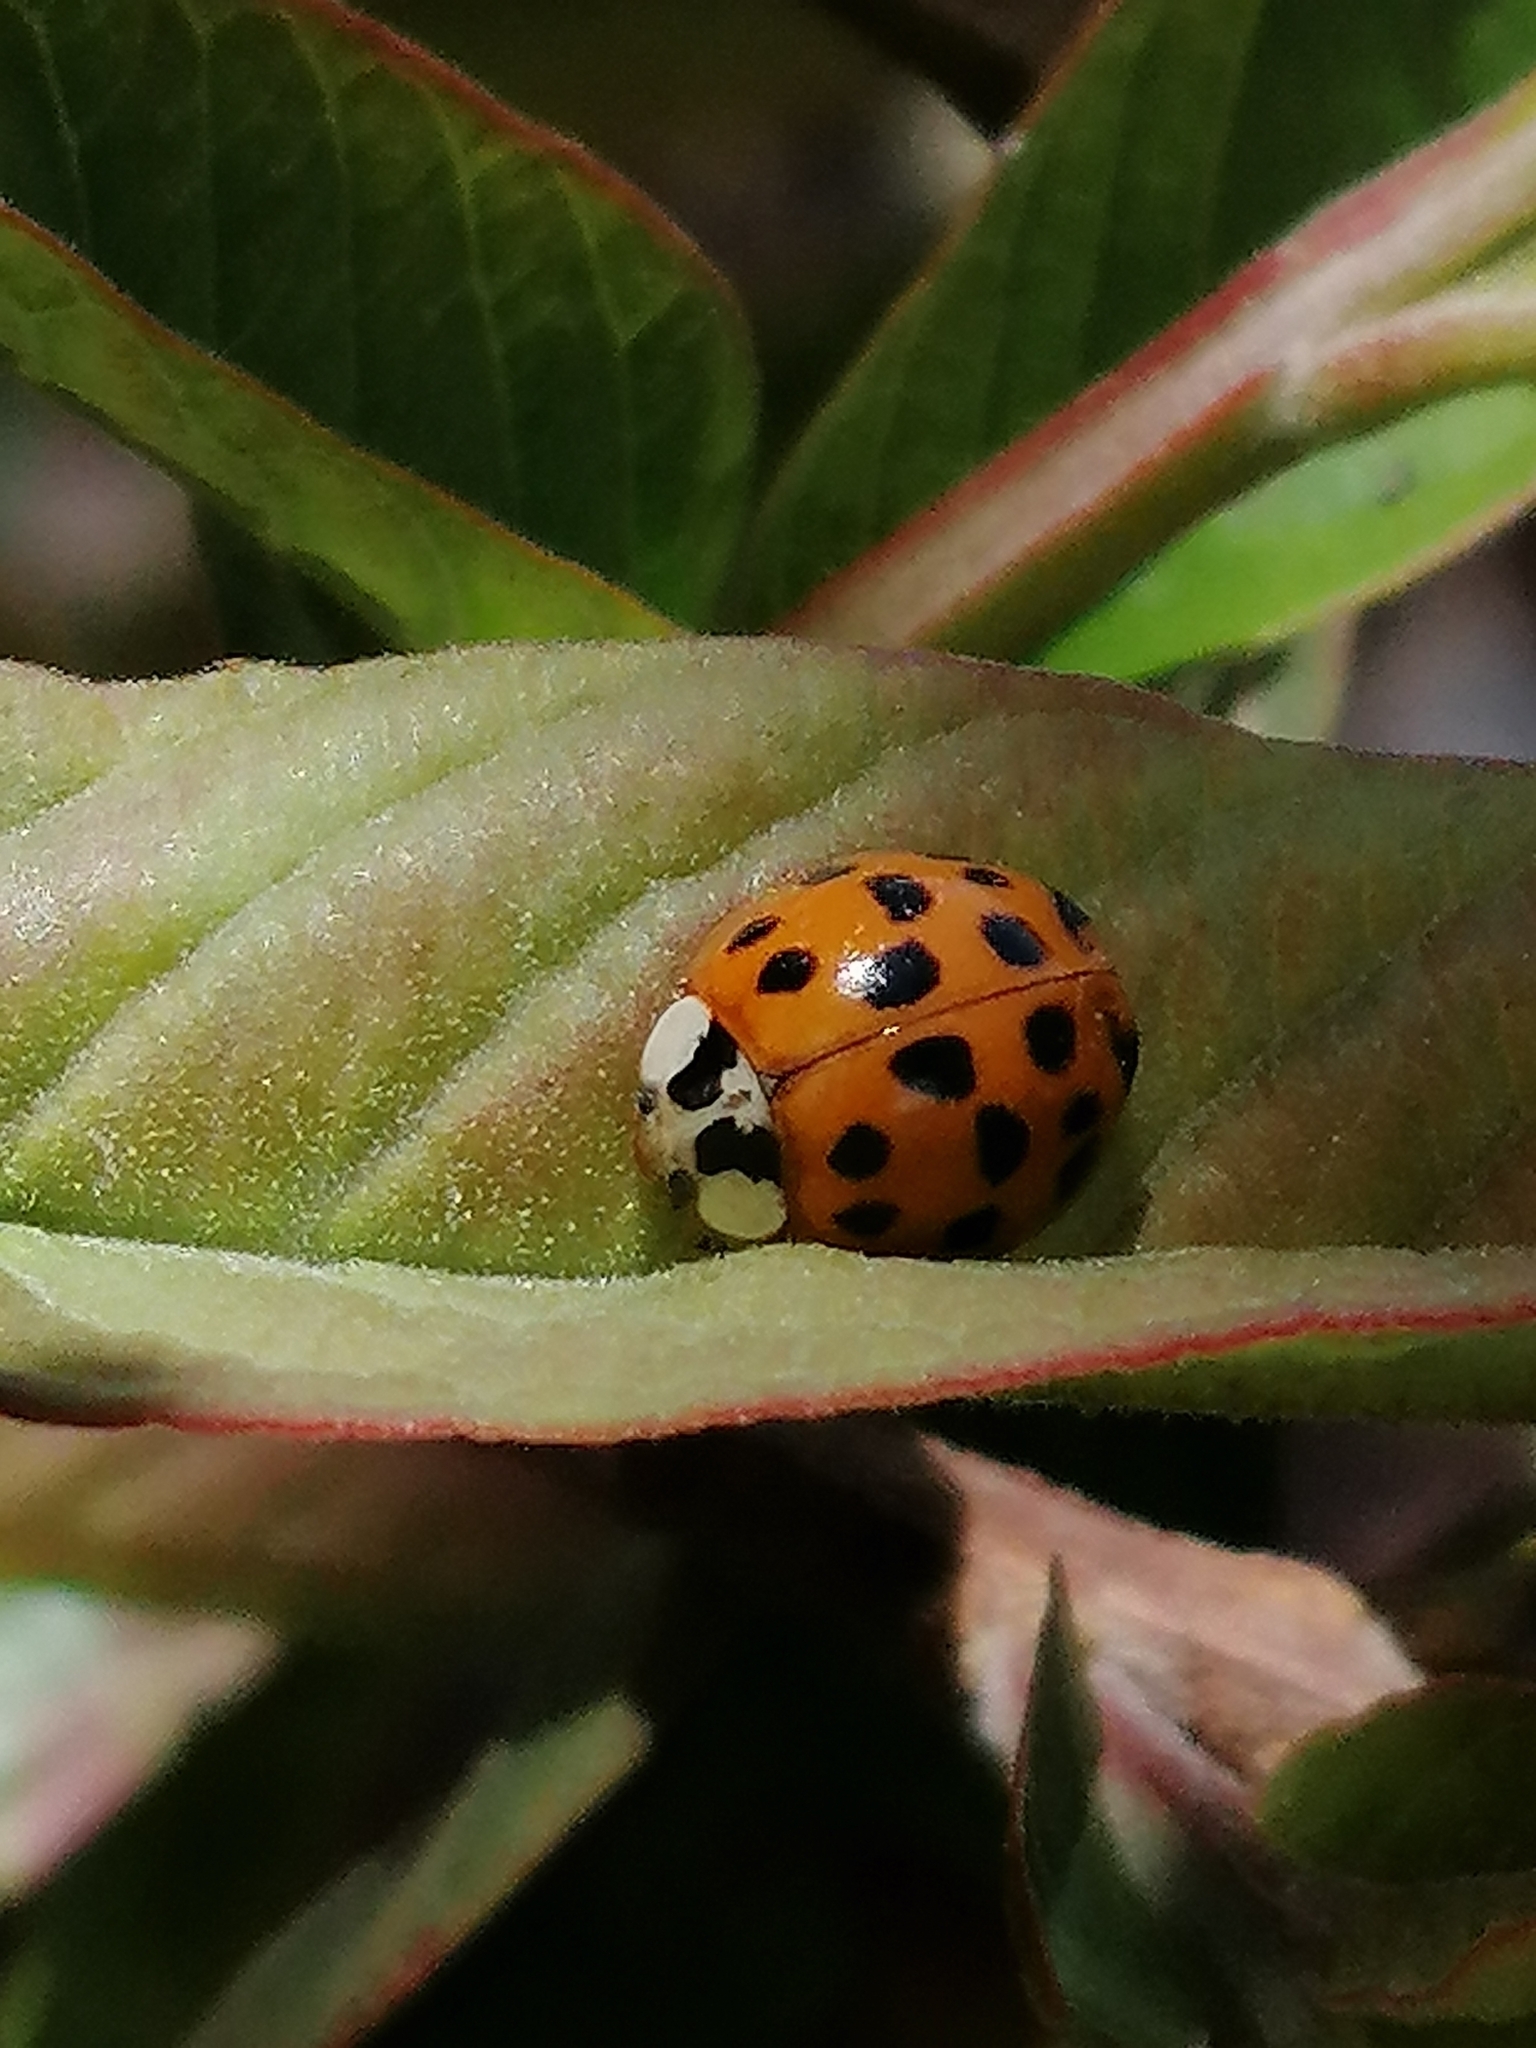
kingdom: Animalia
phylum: Arthropoda
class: Insecta
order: Coleoptera
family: Coccinellidae
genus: Harmonia
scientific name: Harmonia axyridis
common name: Harlequin ladybird
